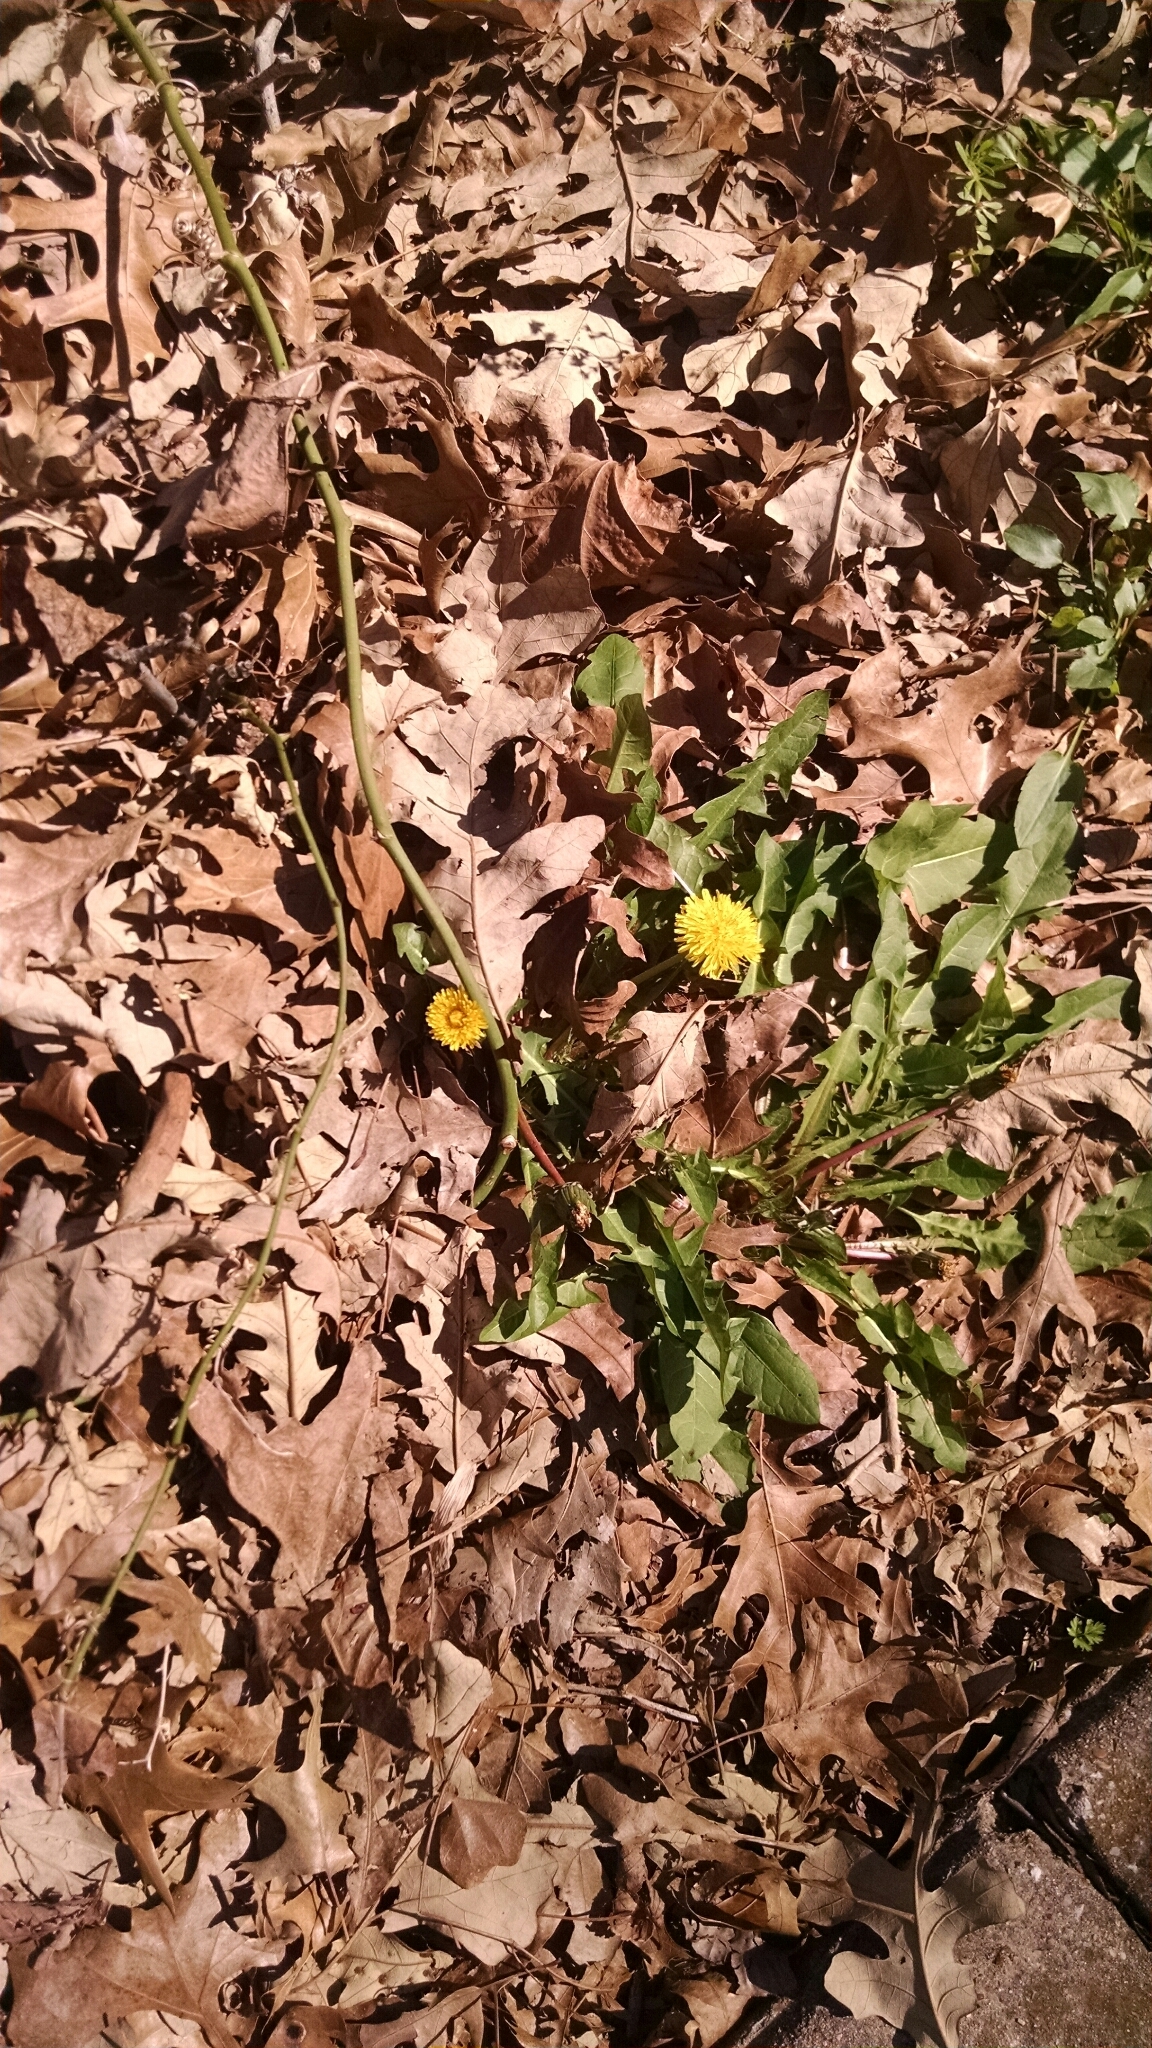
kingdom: Plantae
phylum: Tracheophyta
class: Magnoliopsida
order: Asterales
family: Asteraceae
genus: Taraxacum
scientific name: Taraxacum officinale
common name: Common dandelion
